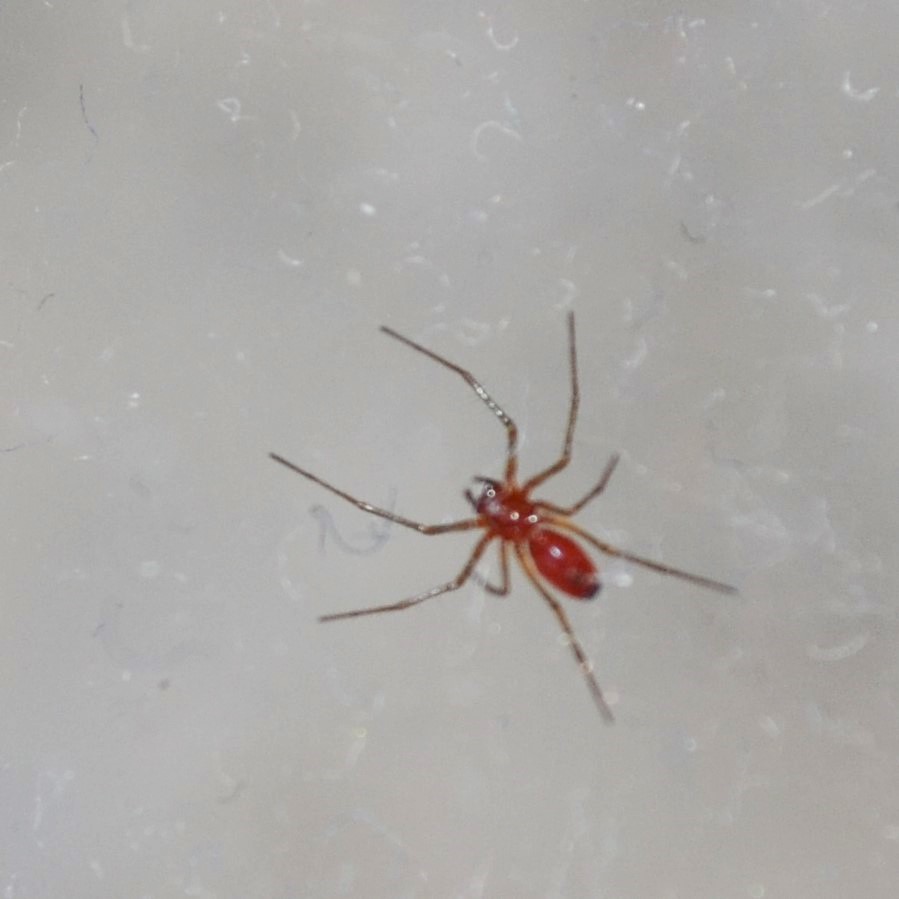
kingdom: Animalia
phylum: Arthropoda
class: Arachnida
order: Araneae
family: Linyphiidae
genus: Florinda
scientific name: Florinda coccinea
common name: Black-tailed red sheetweaver
